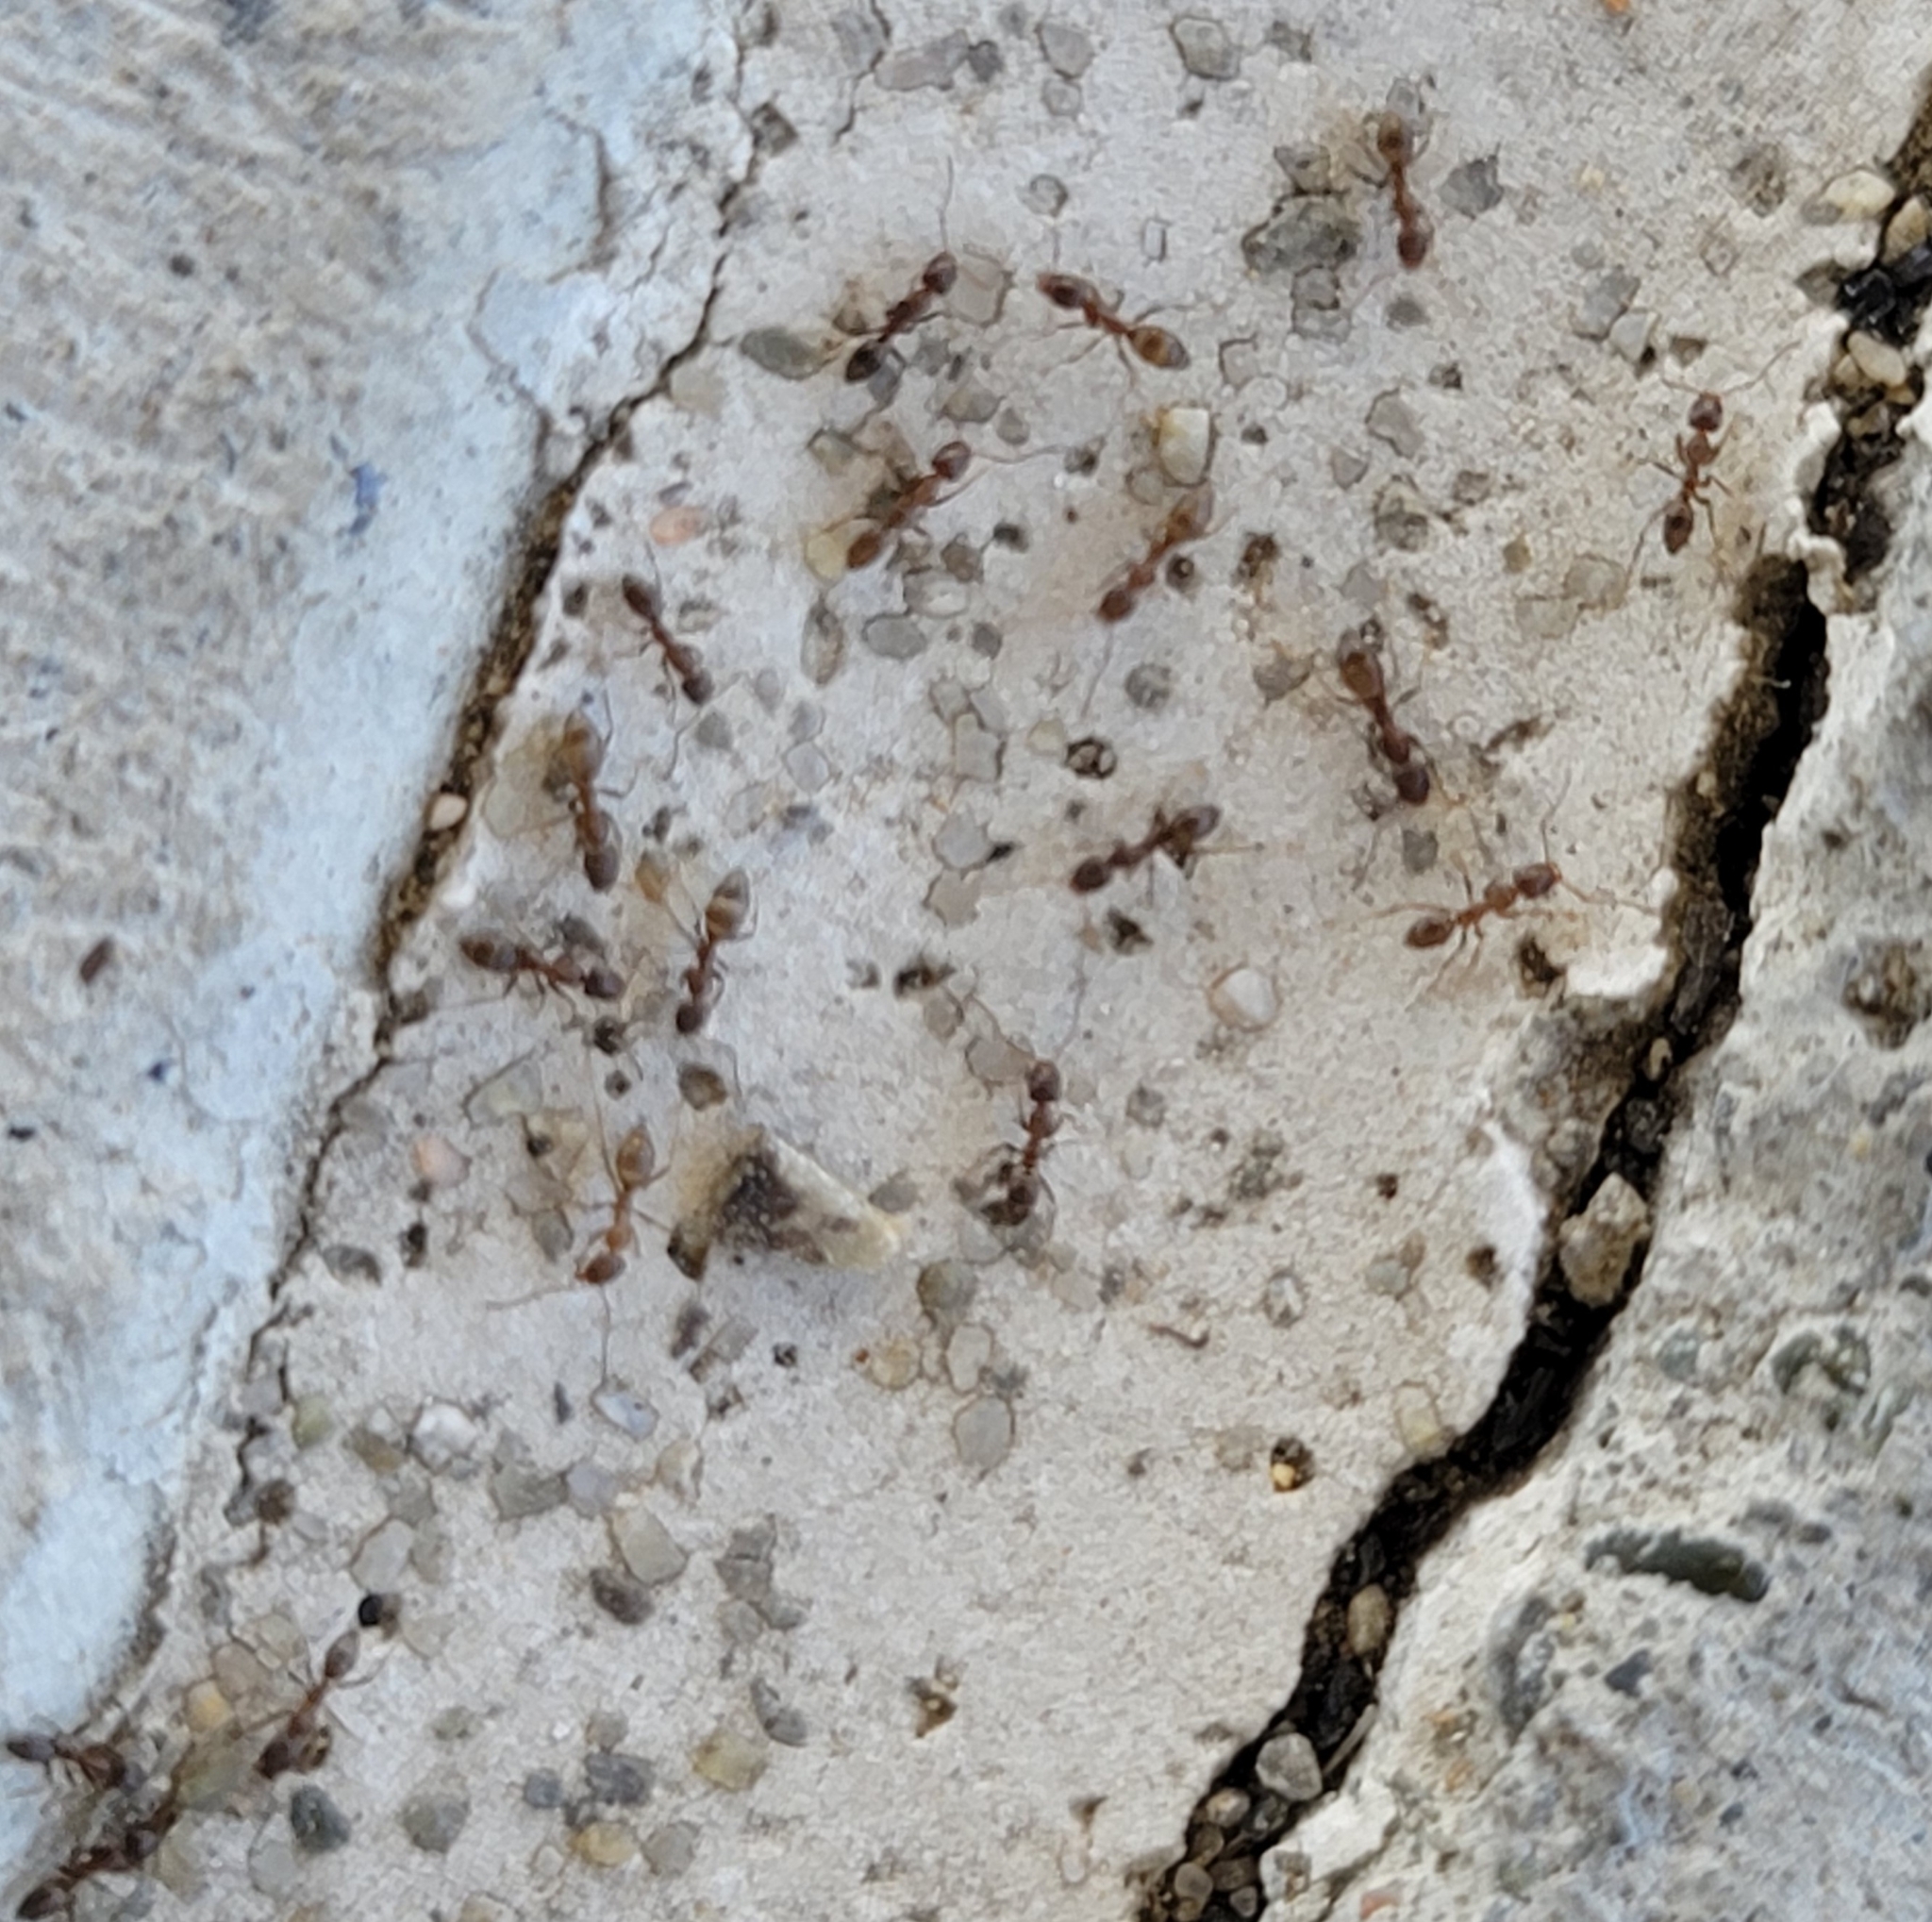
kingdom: Animalia
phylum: Arthropoda
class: Insecta
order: Hymenoptera
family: Formicidae
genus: Linepithema
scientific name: Linepithema humile
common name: Argentine ant
